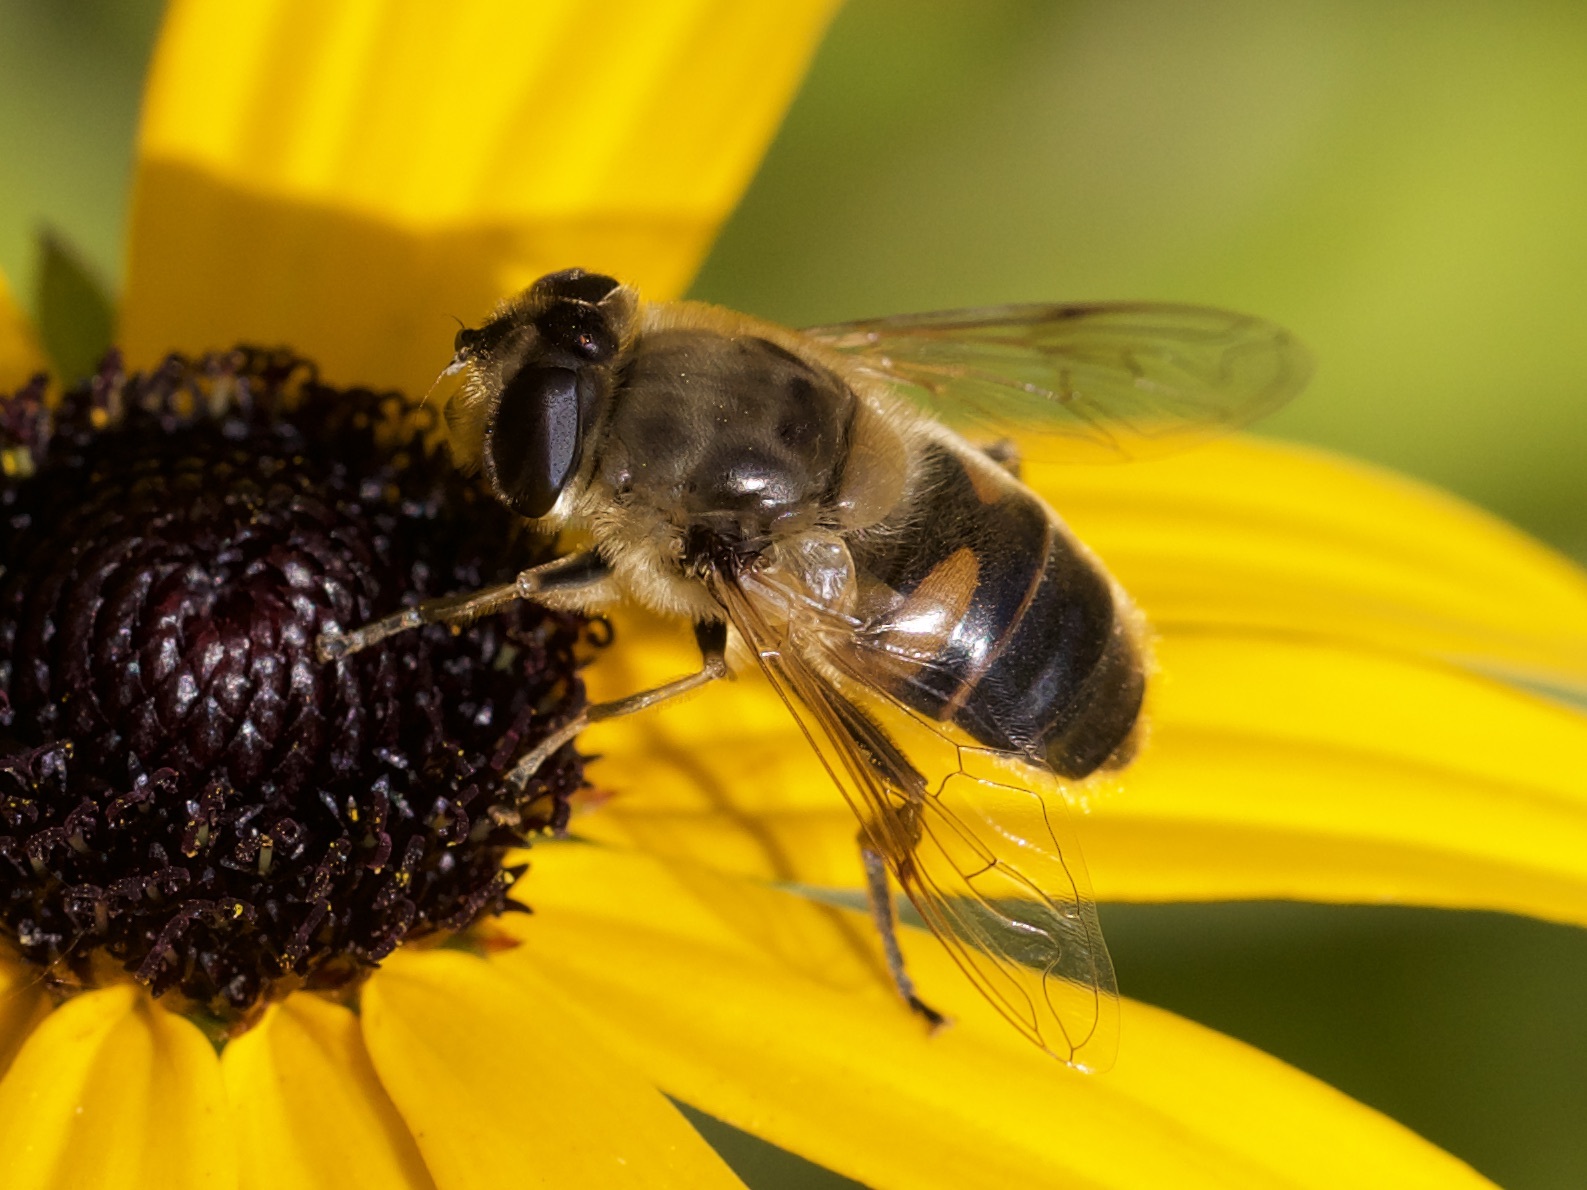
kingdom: Animalia
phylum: Arthropoda
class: Insecta
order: Diptera
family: Syrphidae
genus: Eristalis
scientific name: Eristalis tenax
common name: Drone fly
